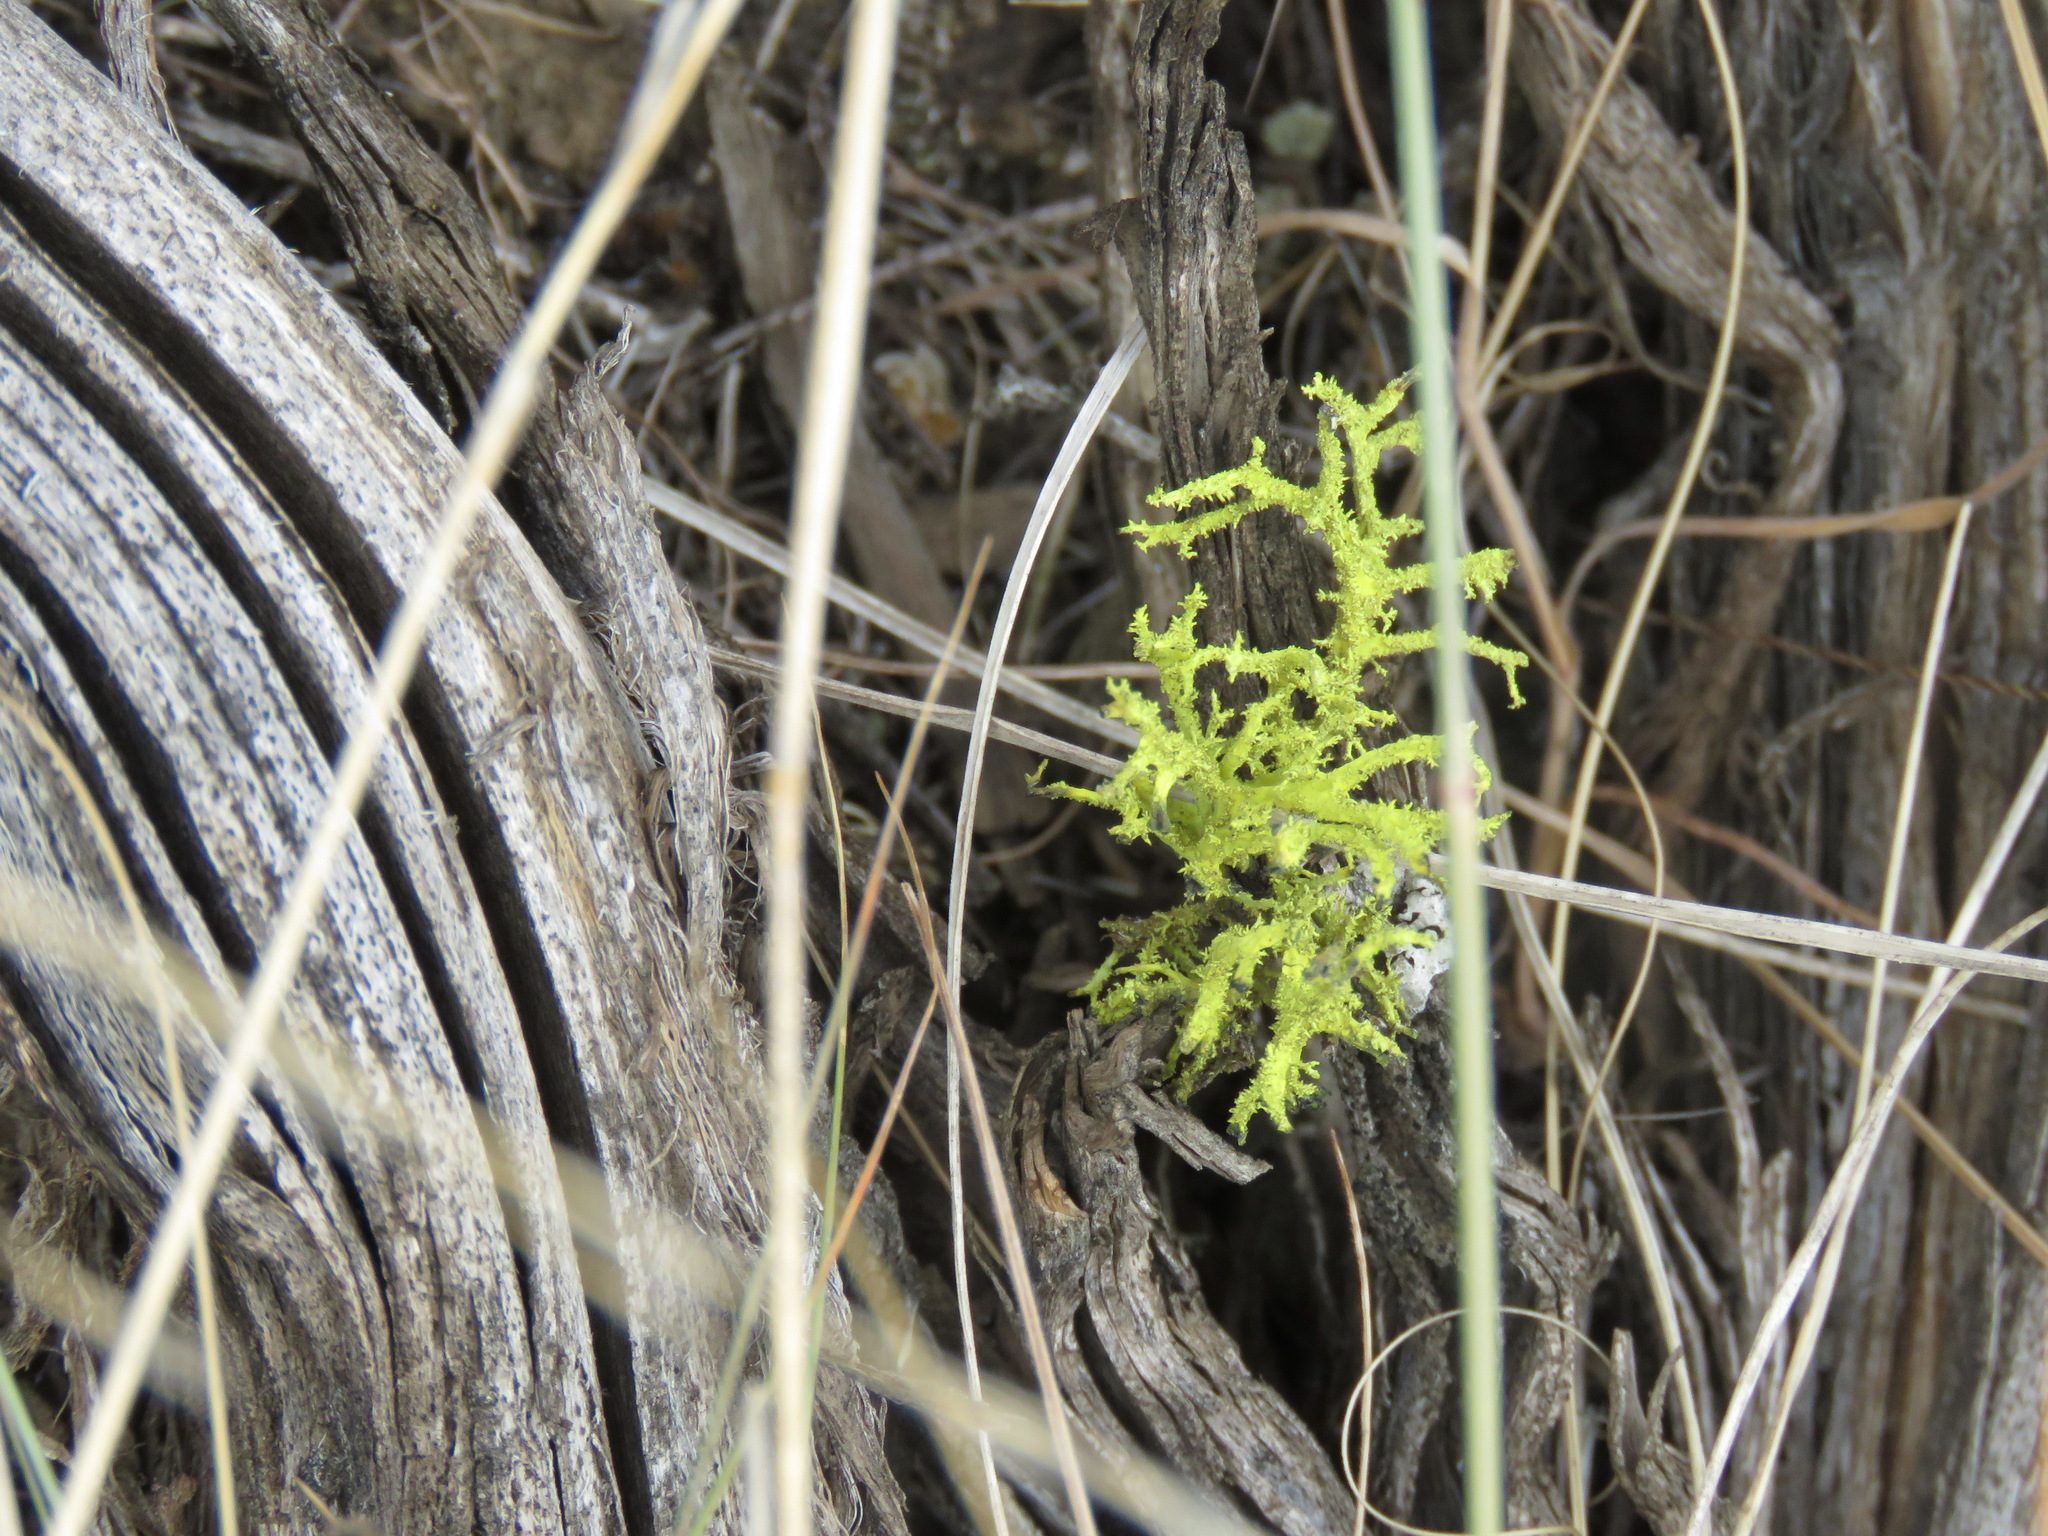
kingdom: Fungi
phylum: Ascomycota
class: Lecanoromycetes
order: Lecanorales
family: Parmeliaceae
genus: Letharia
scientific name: Letharia vulpina
